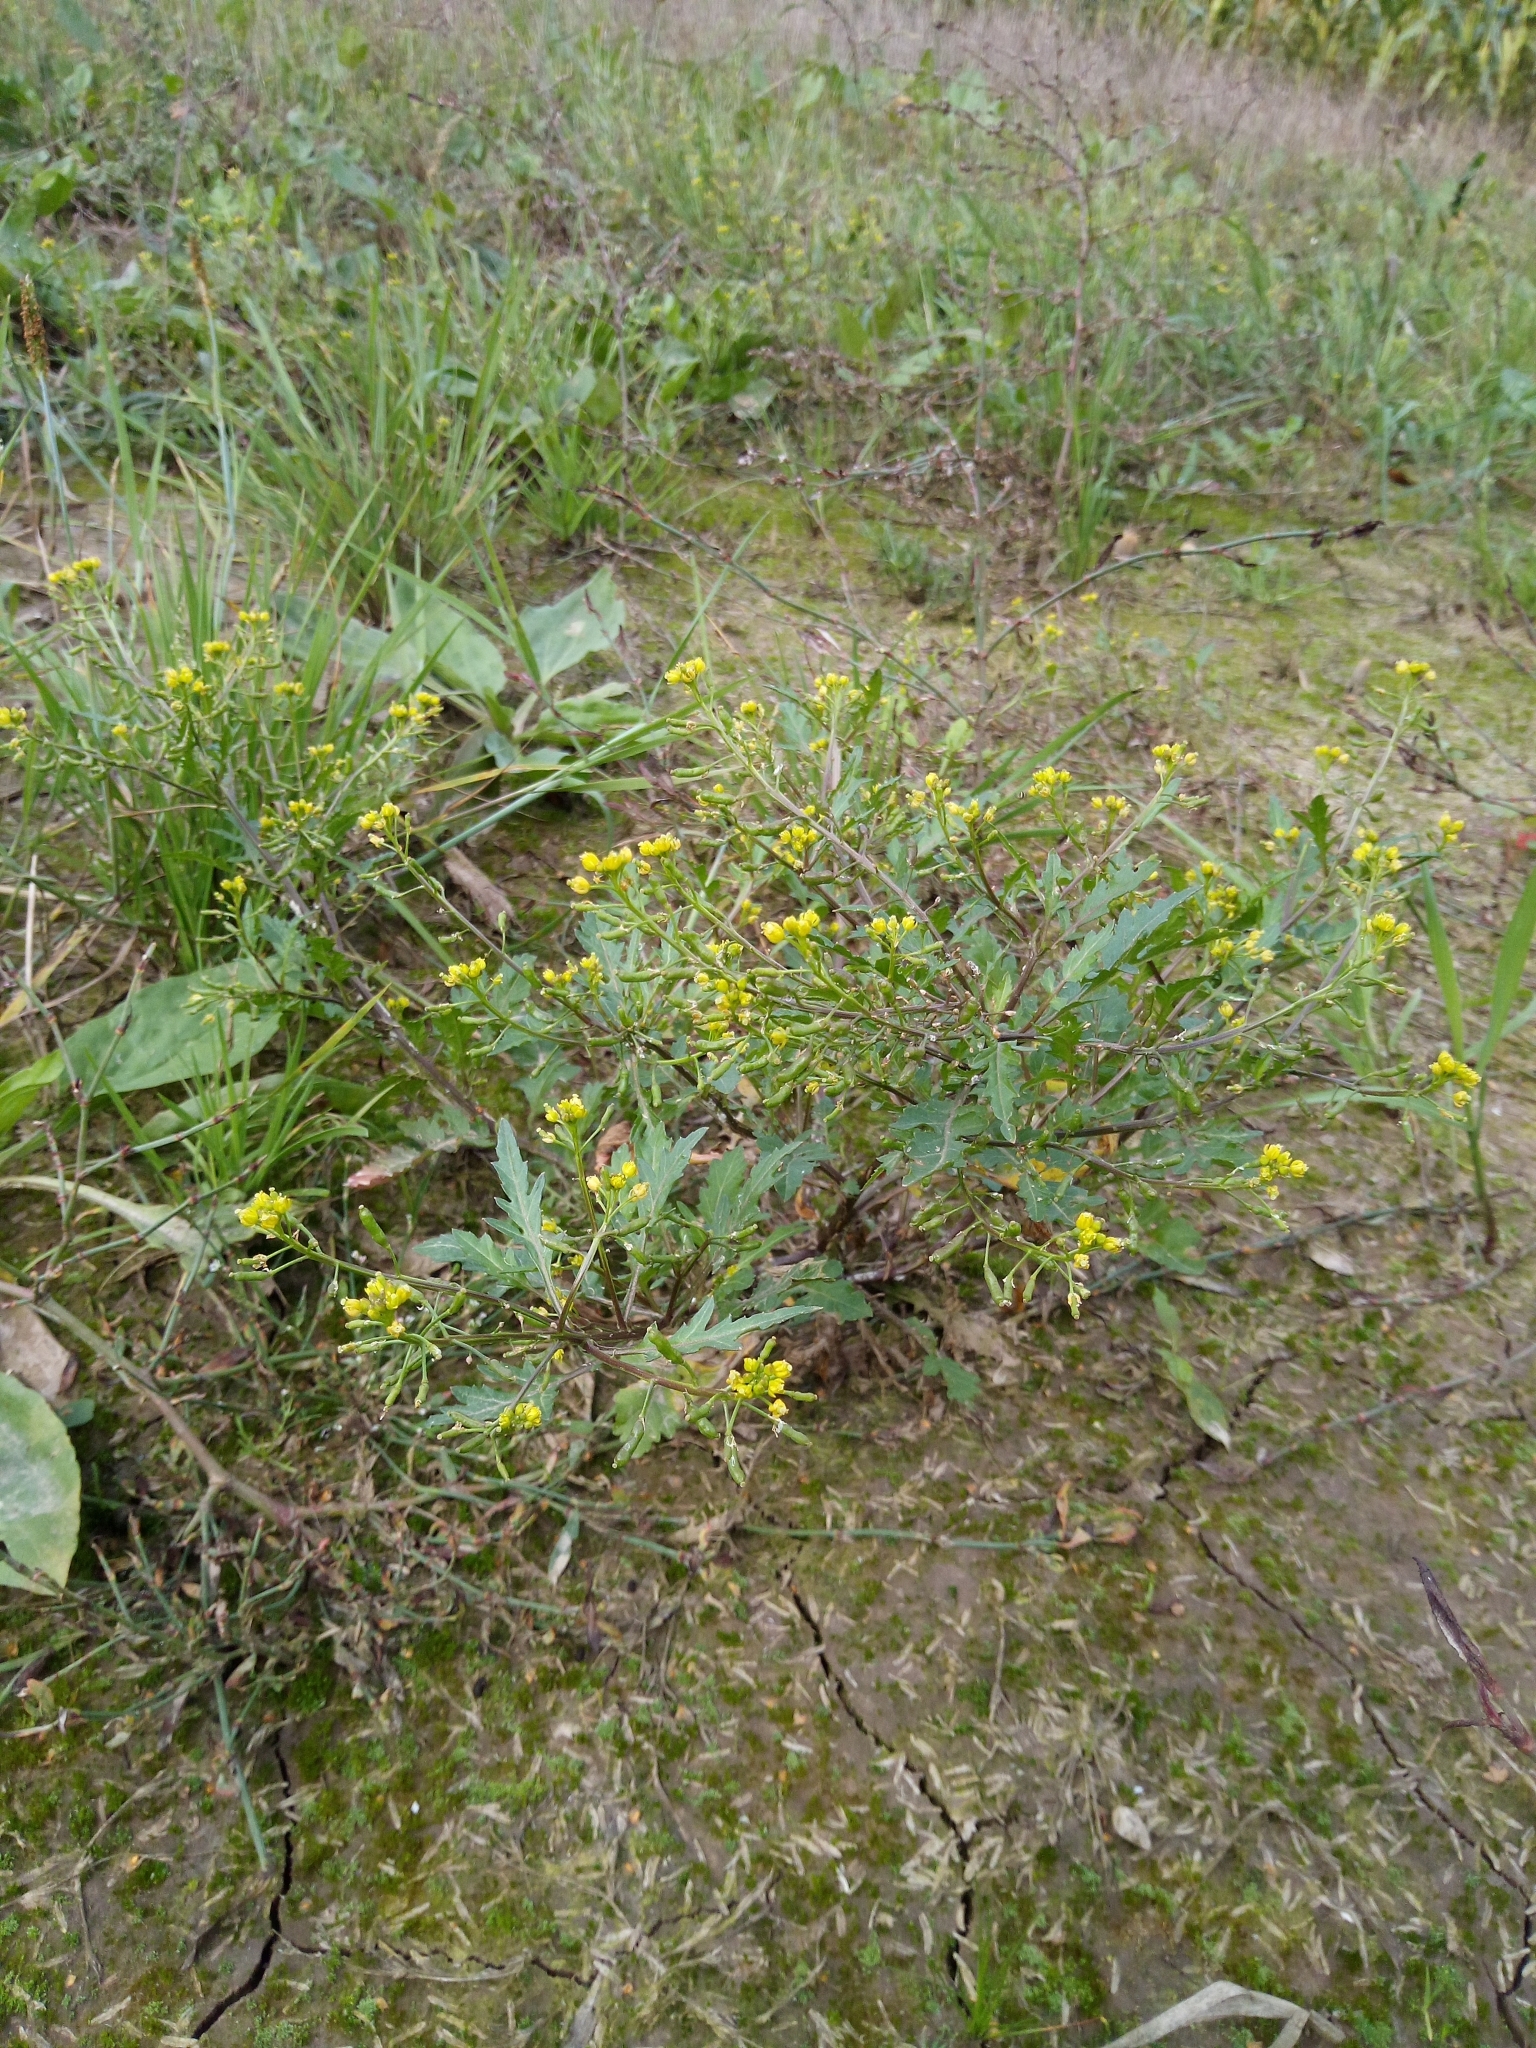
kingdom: Plantae
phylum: Tracheophyta
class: Magnoliopsida
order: Brassicales
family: Brassicaceae
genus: Rorippa
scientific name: Rorippa palustris
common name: Marsh yellow-cress
